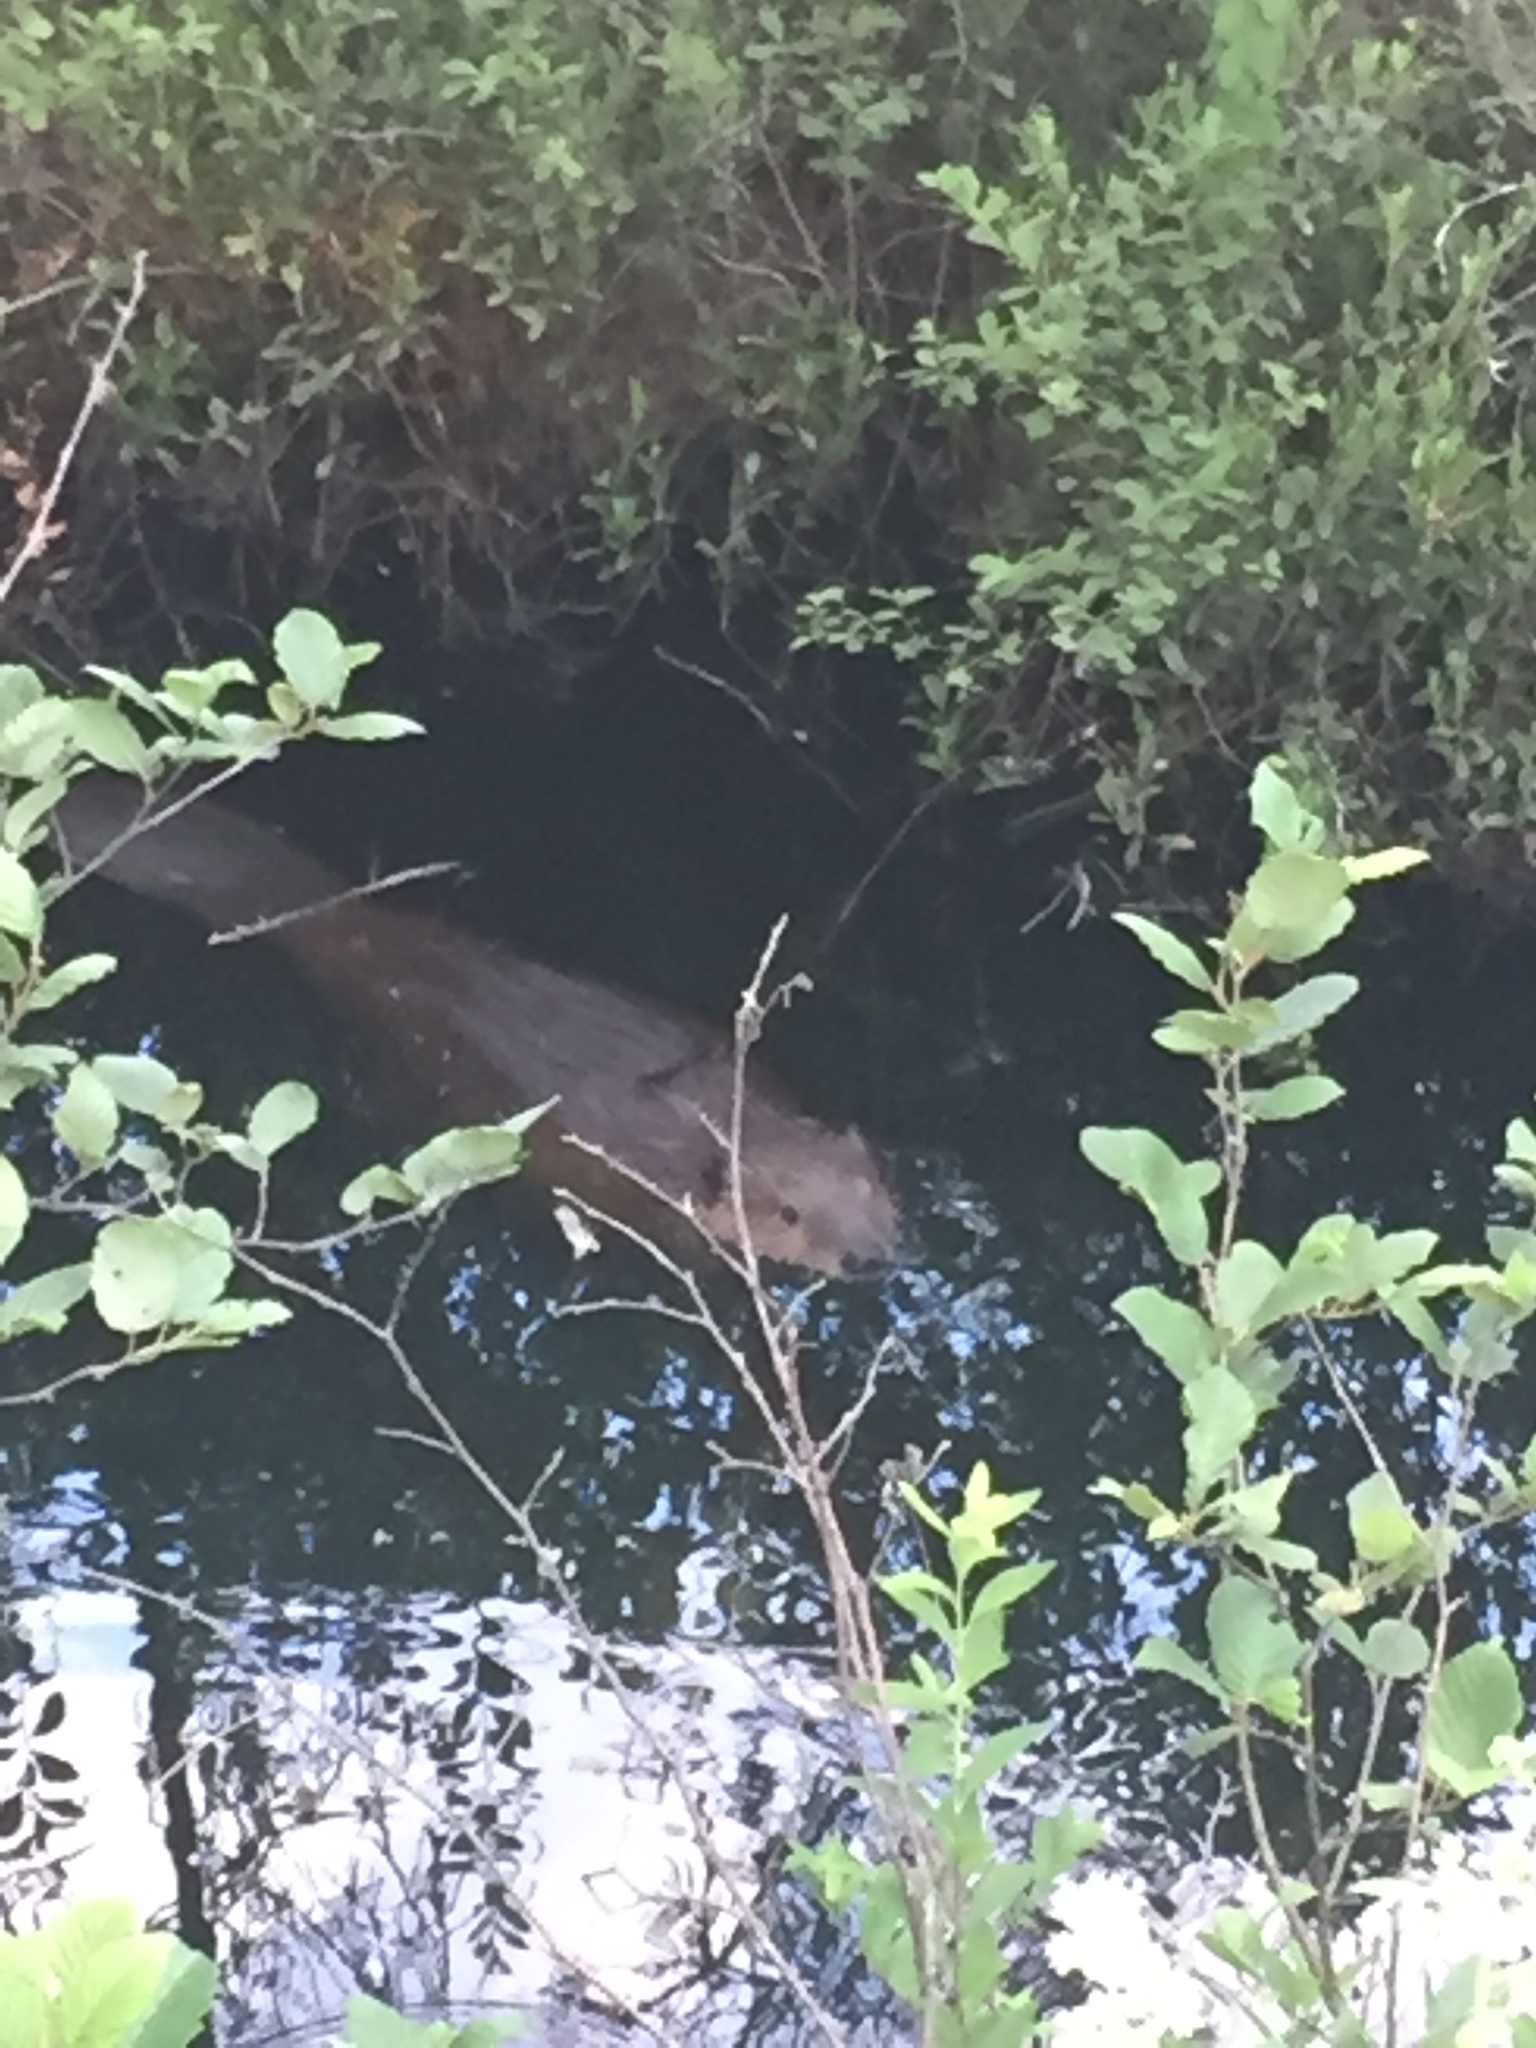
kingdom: Animalia
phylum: Chordata
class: Mammalia
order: Rodentia
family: Castoridae
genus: Castor
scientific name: Castor canadensis
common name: American beaver
